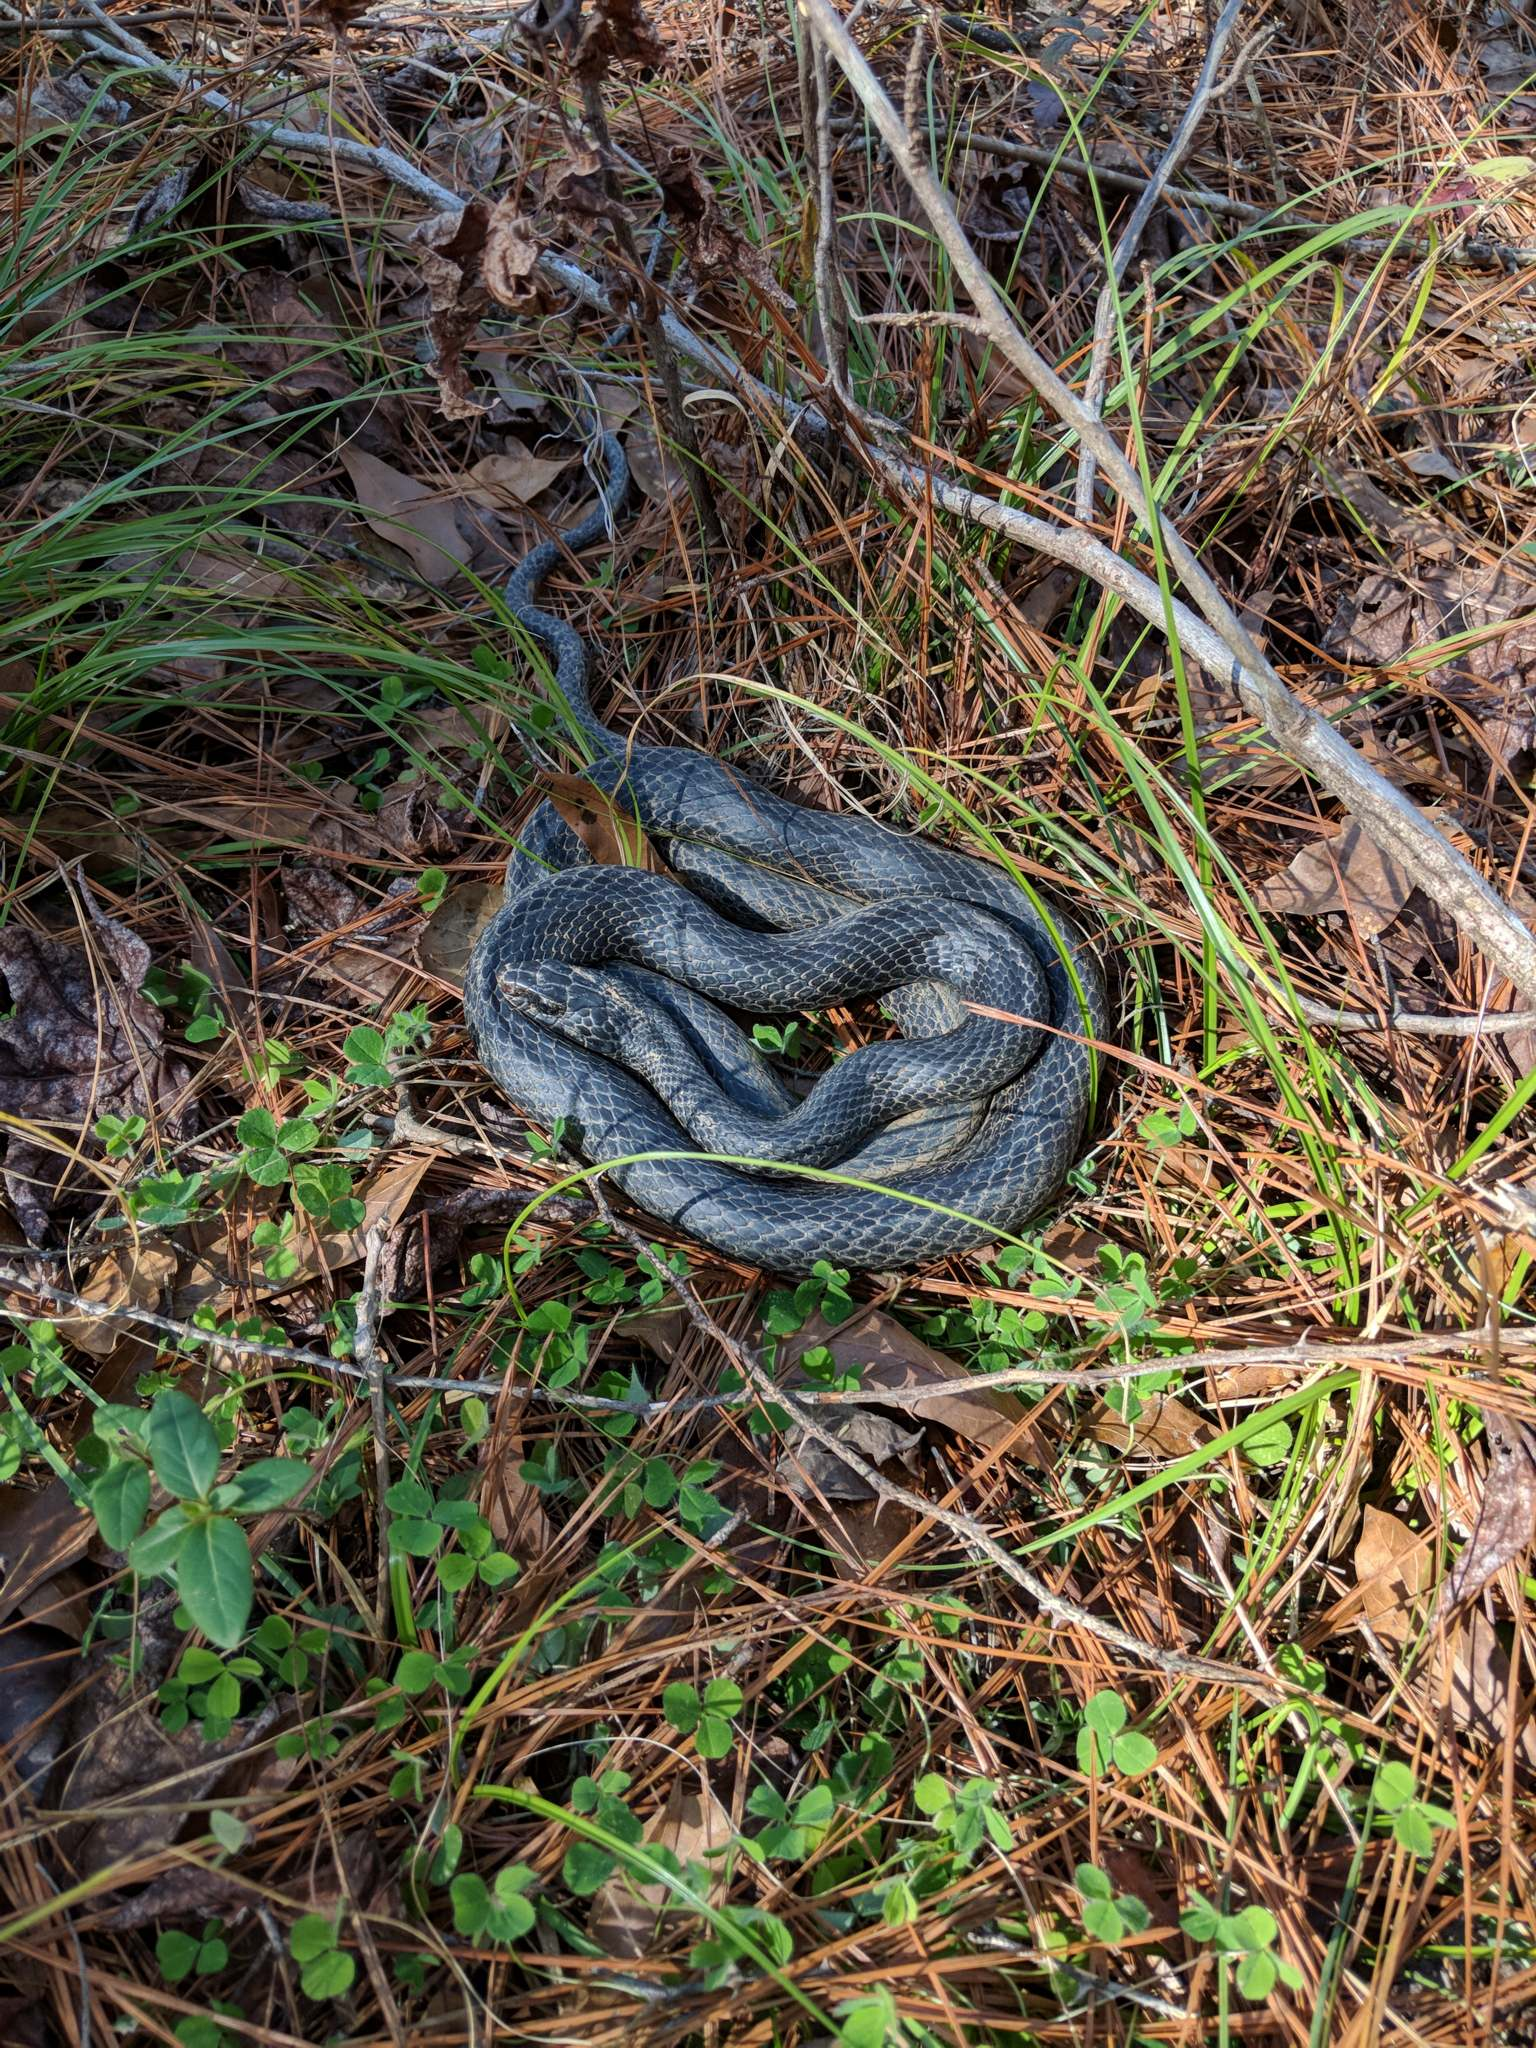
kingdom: Animalia
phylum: Chordata
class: Squamata
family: Colubridae
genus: Coluber
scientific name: Coluber constrictor
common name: Eastern racer
